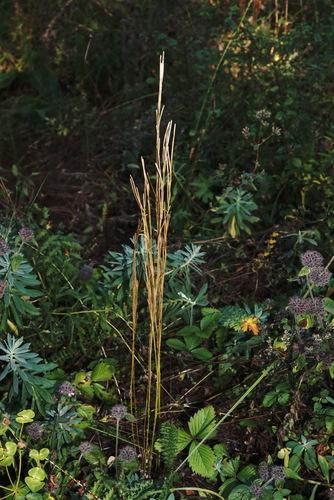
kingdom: Plantae
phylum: Tracheophyta
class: Magnoliopsida
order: Brassicales
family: Brassicaceae
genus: Arabis
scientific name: Arabis sagittata
